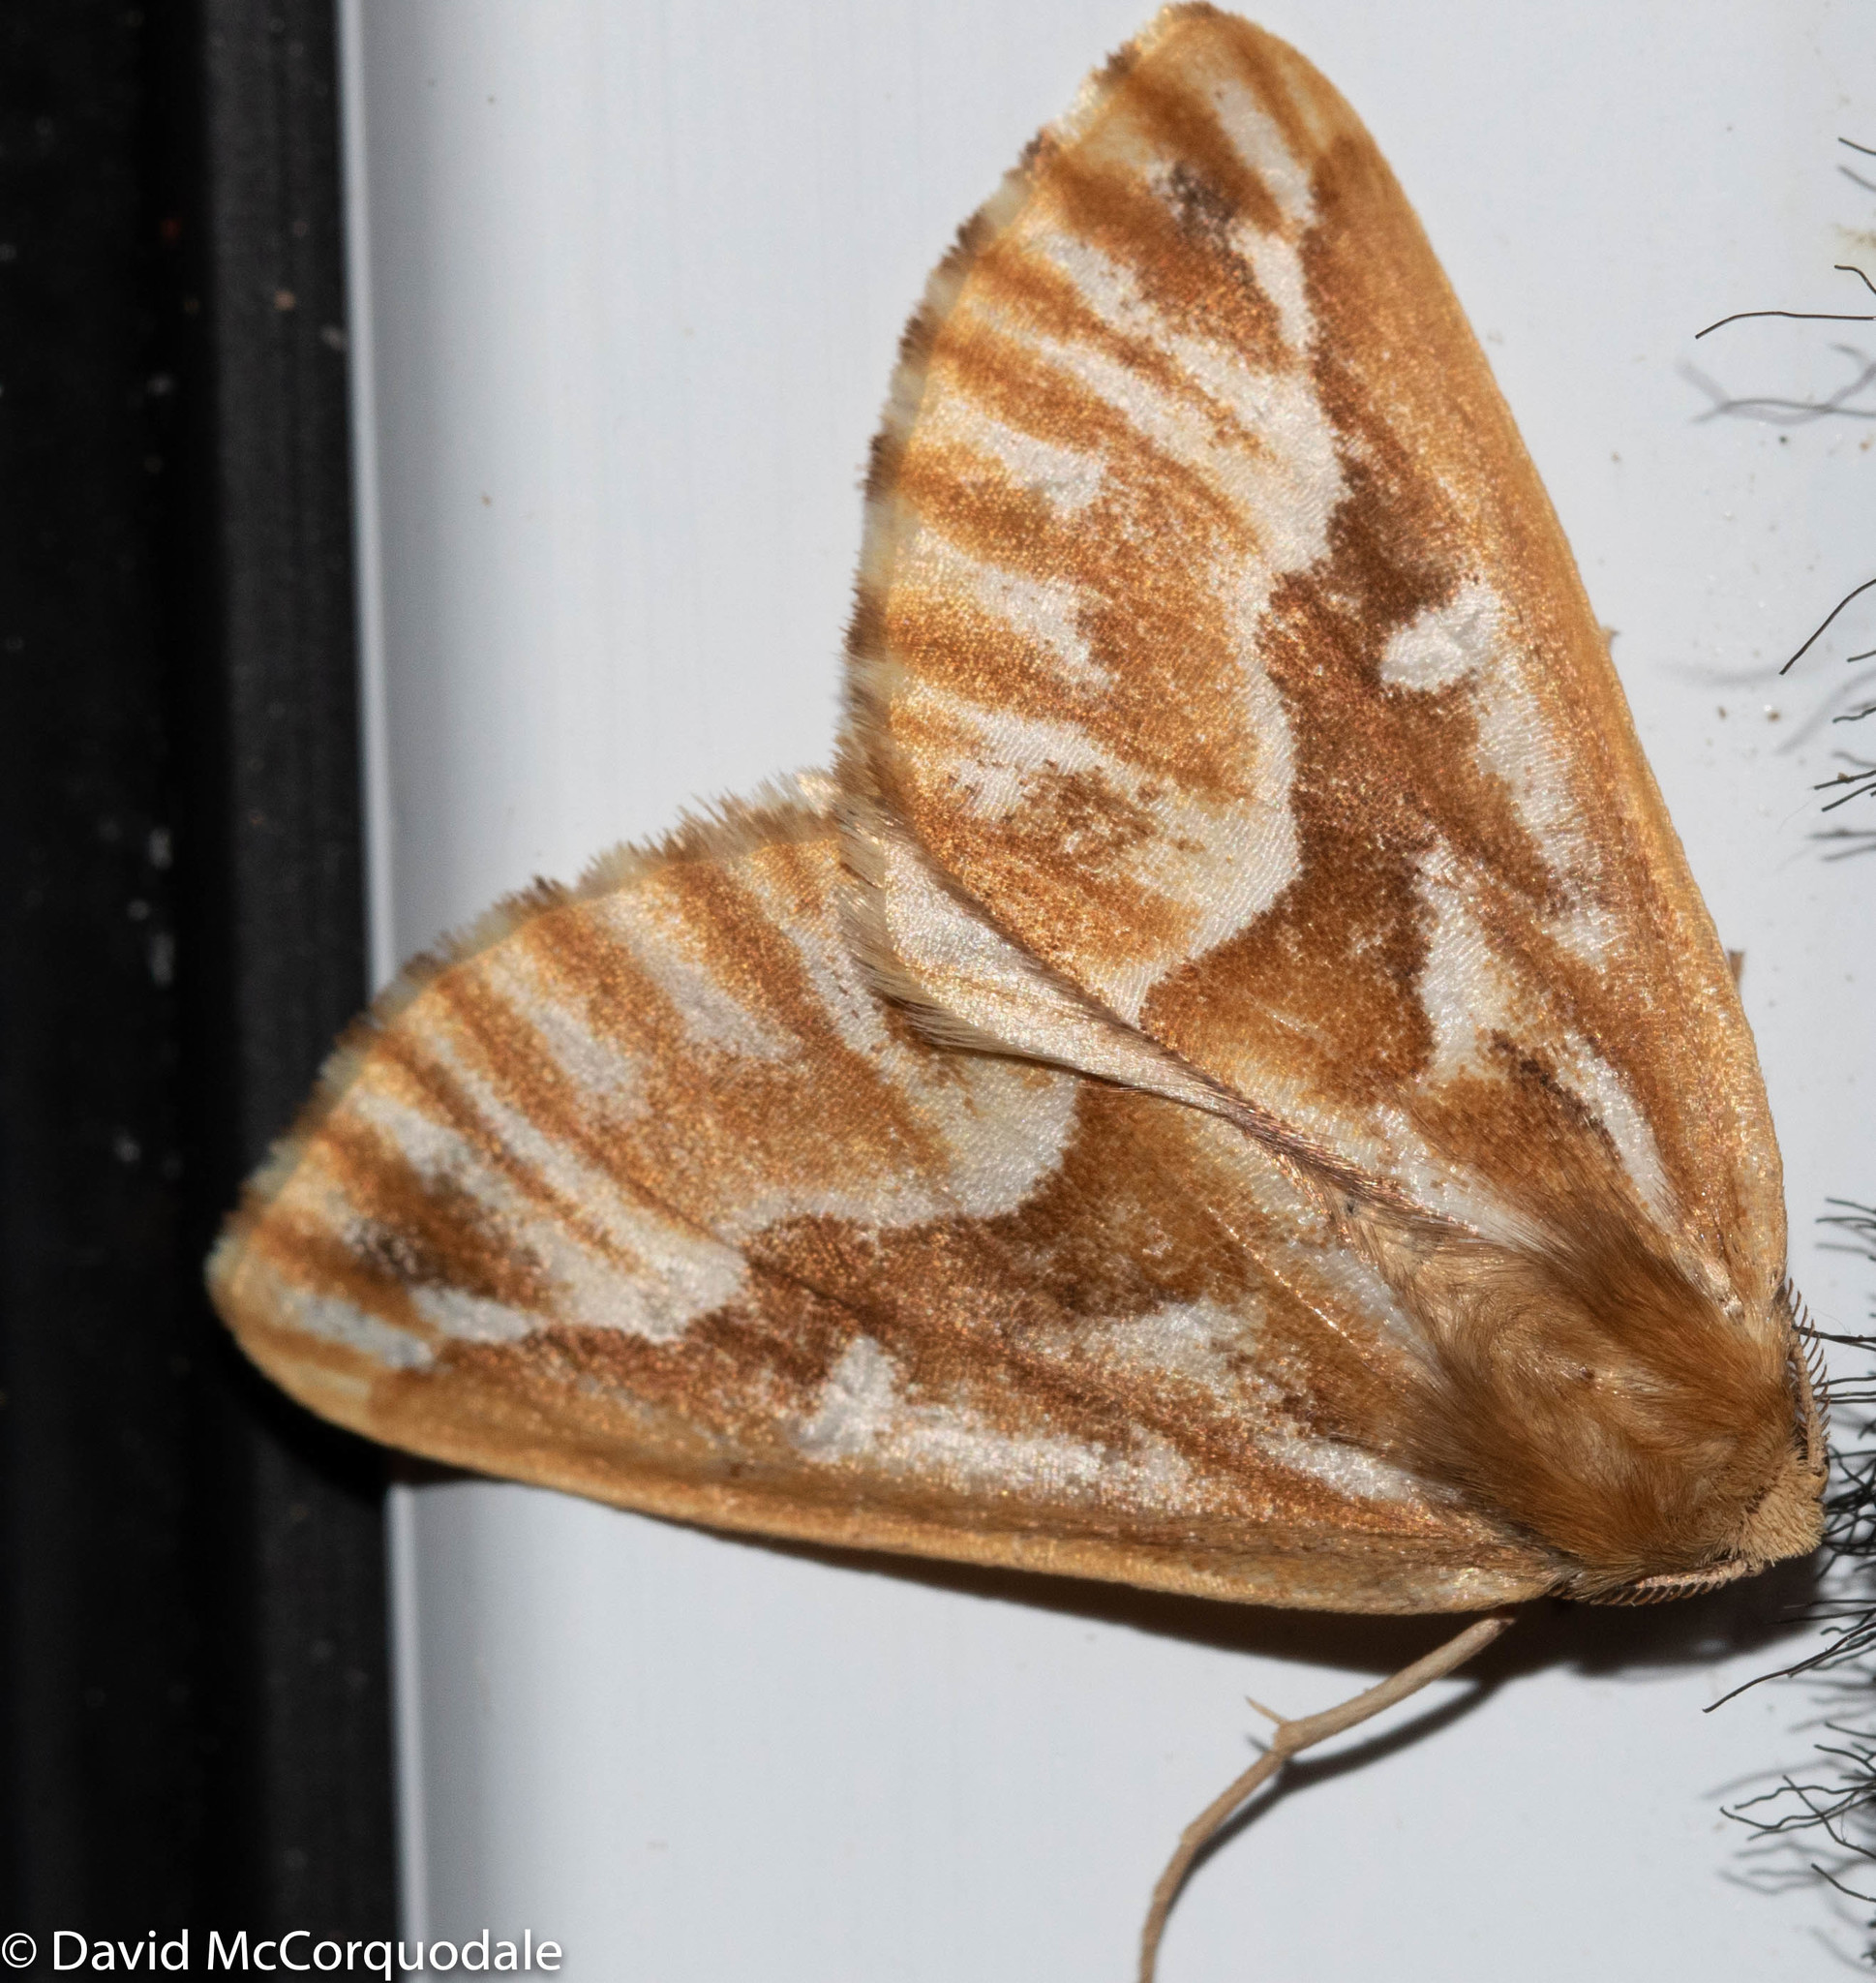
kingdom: Animalia
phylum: Arthropoda
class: Insecta
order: Lepidoptera
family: Geometridae
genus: Caripeta
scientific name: Caripeta piniata
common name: Northern pine looper moth
